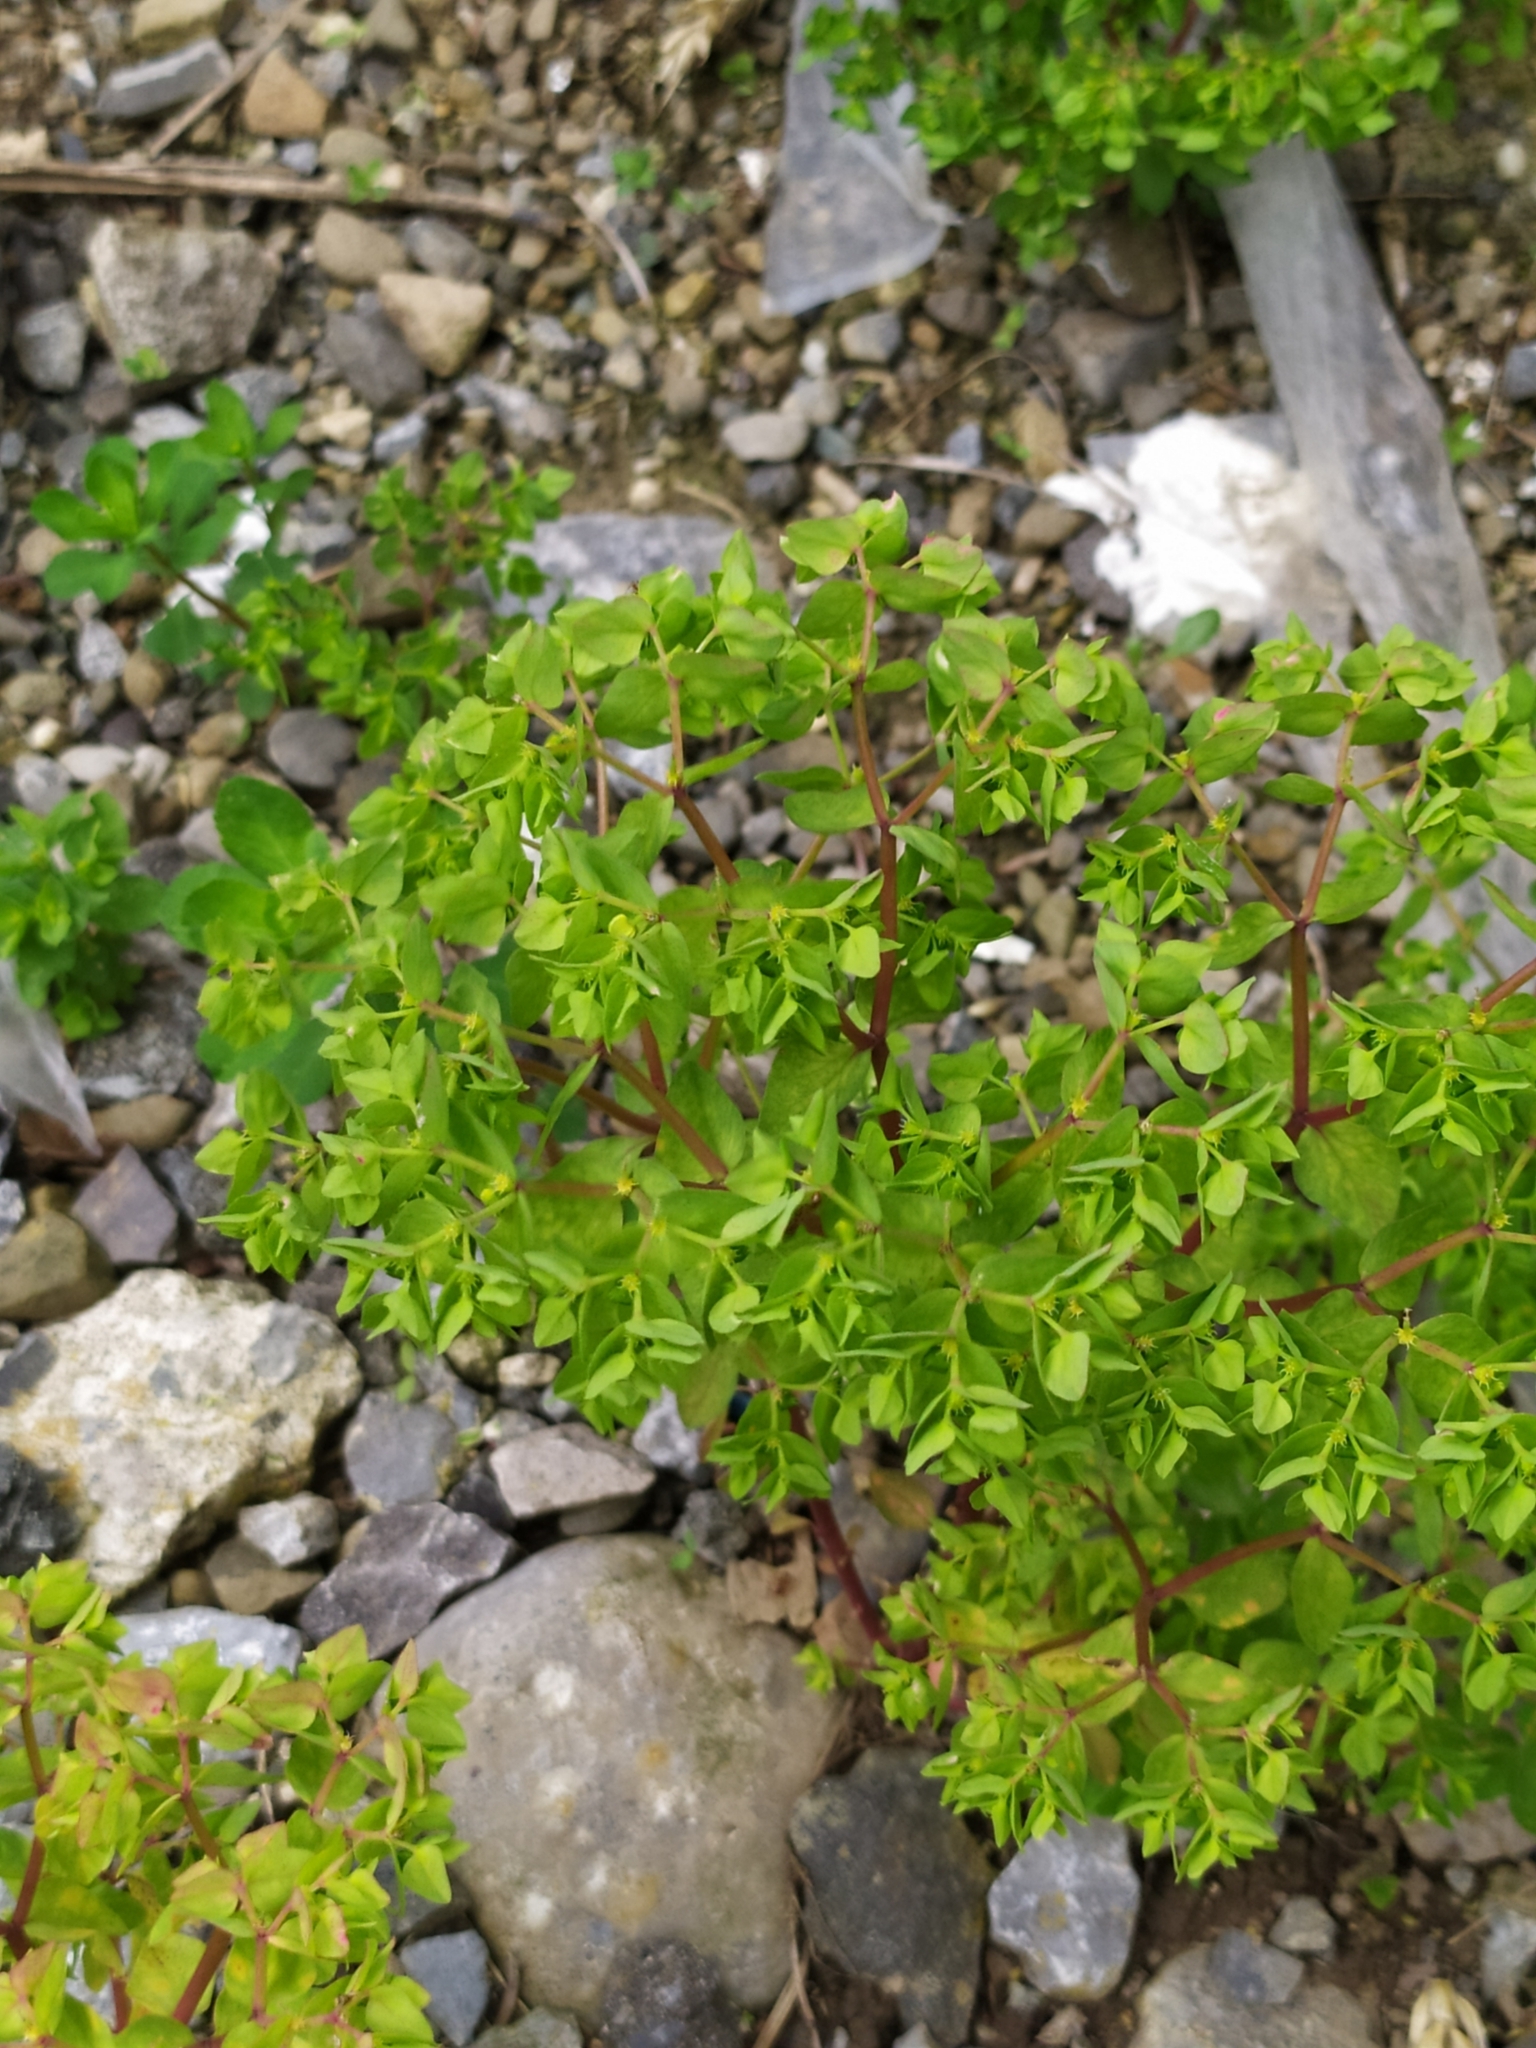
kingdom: Plantae
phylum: Tracheophyta
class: Magnoliopsida
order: Malpighiales
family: Euphorbiaceae
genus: Euphorbia
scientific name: Euphorbia peplus
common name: Petty spurge
